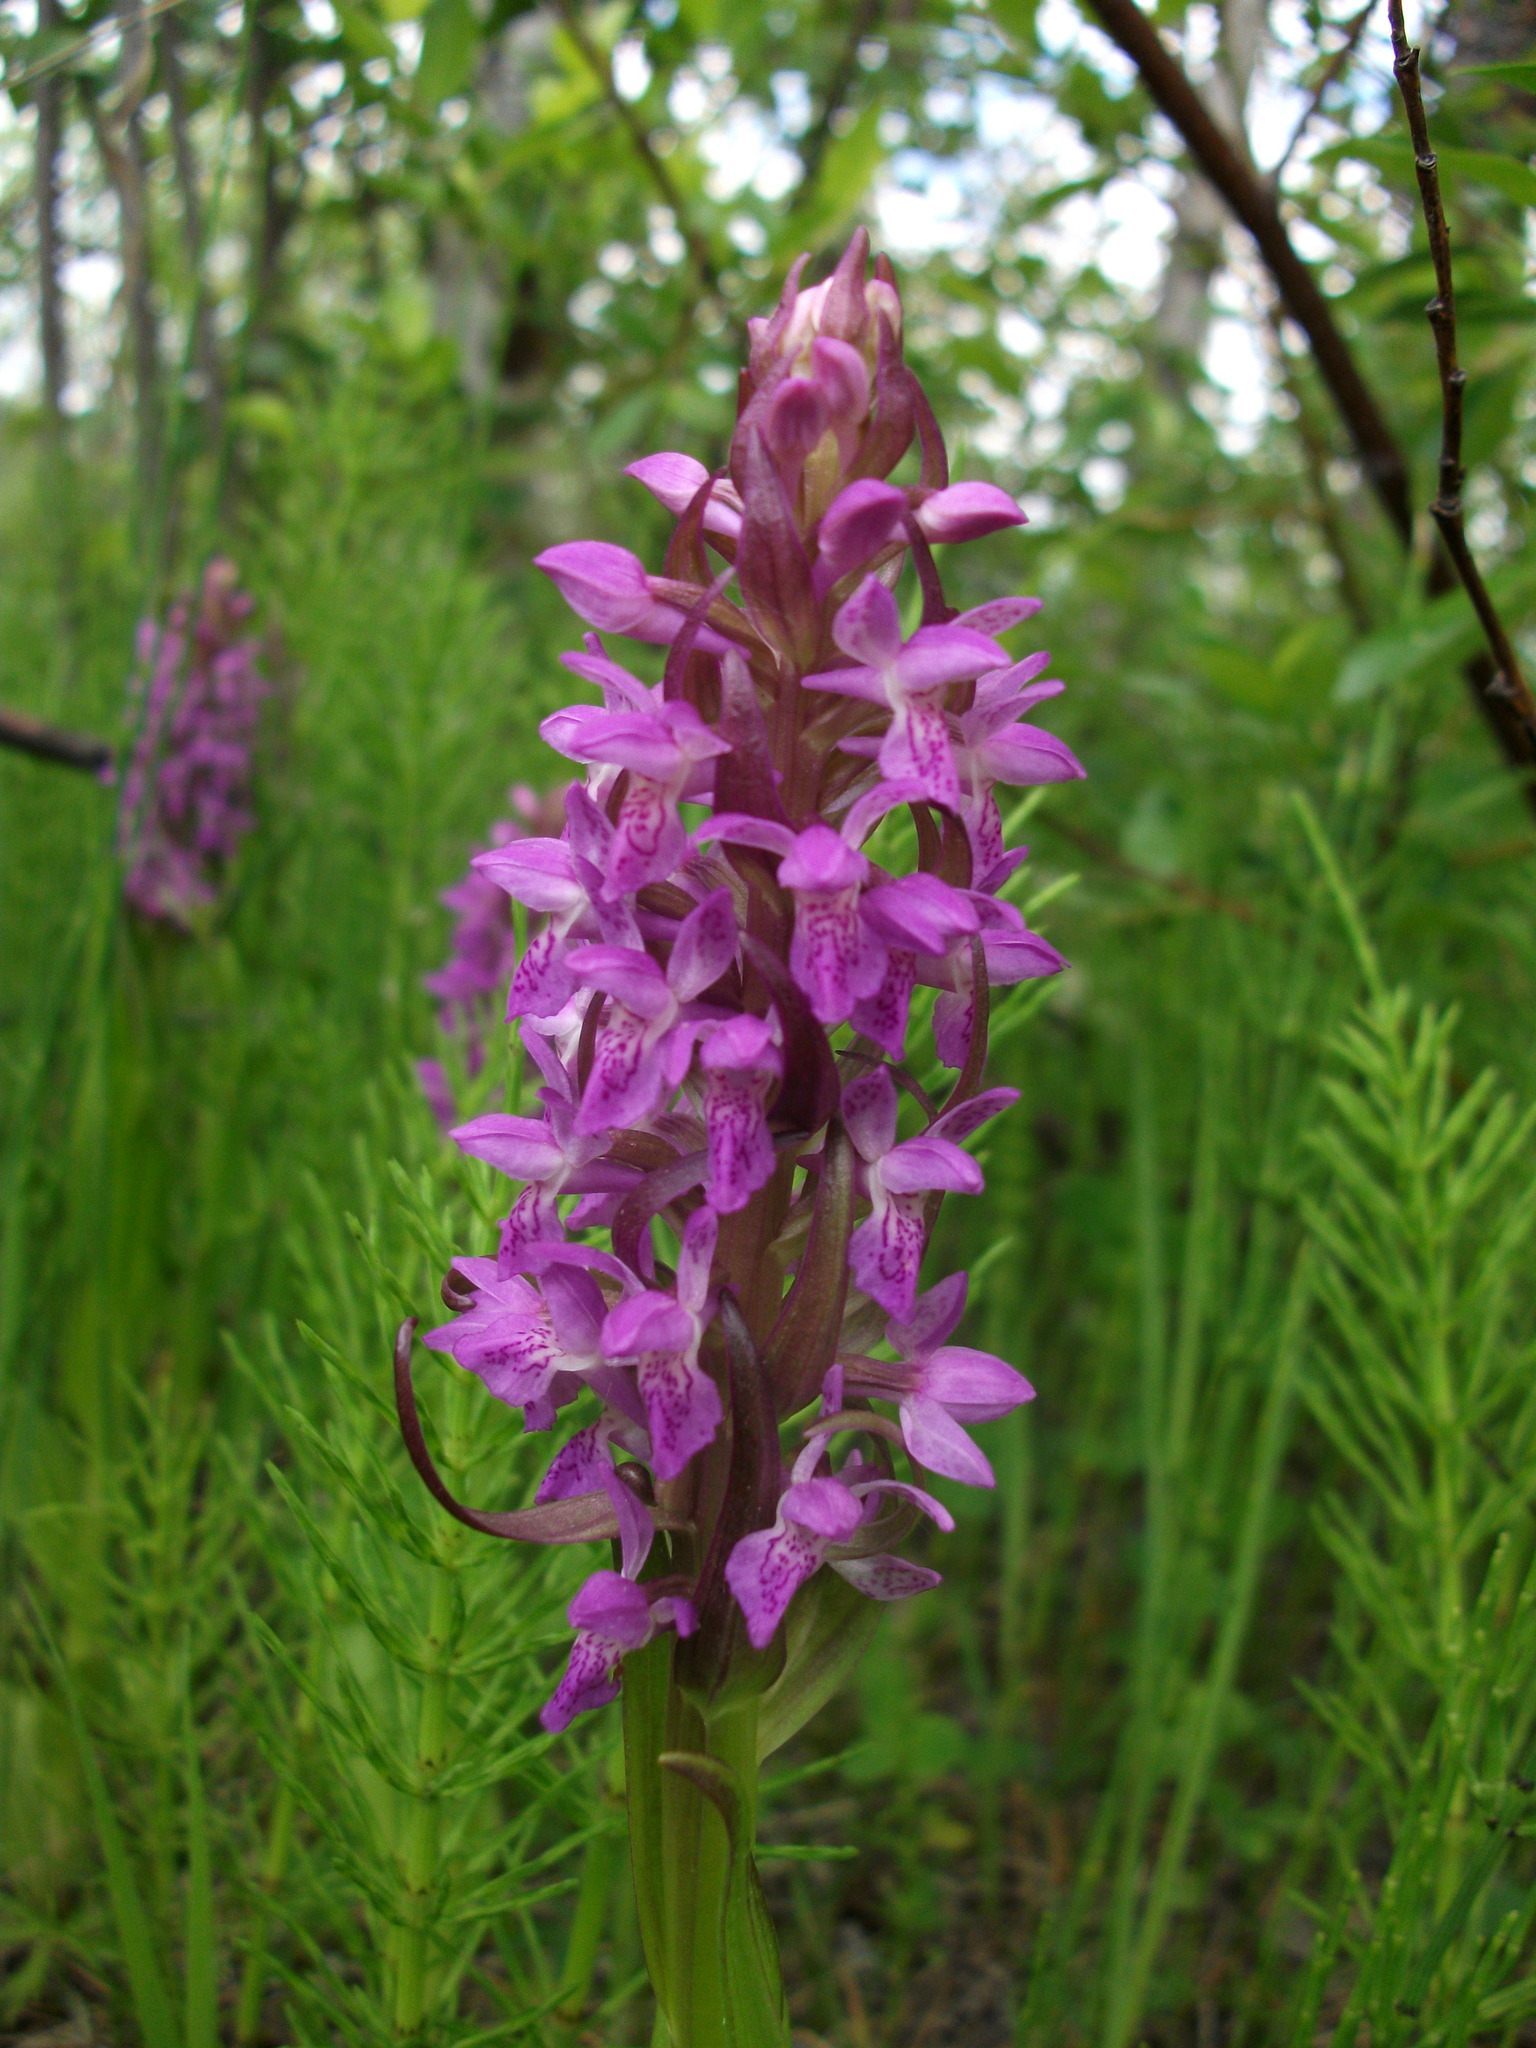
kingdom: Plantae
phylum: Tracheophyta
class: Liliopsida
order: Asparagales
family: Orchidaceae
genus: Dactylorhiza
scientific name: Dactylorhiza incarnata
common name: Early marsh-orchid
